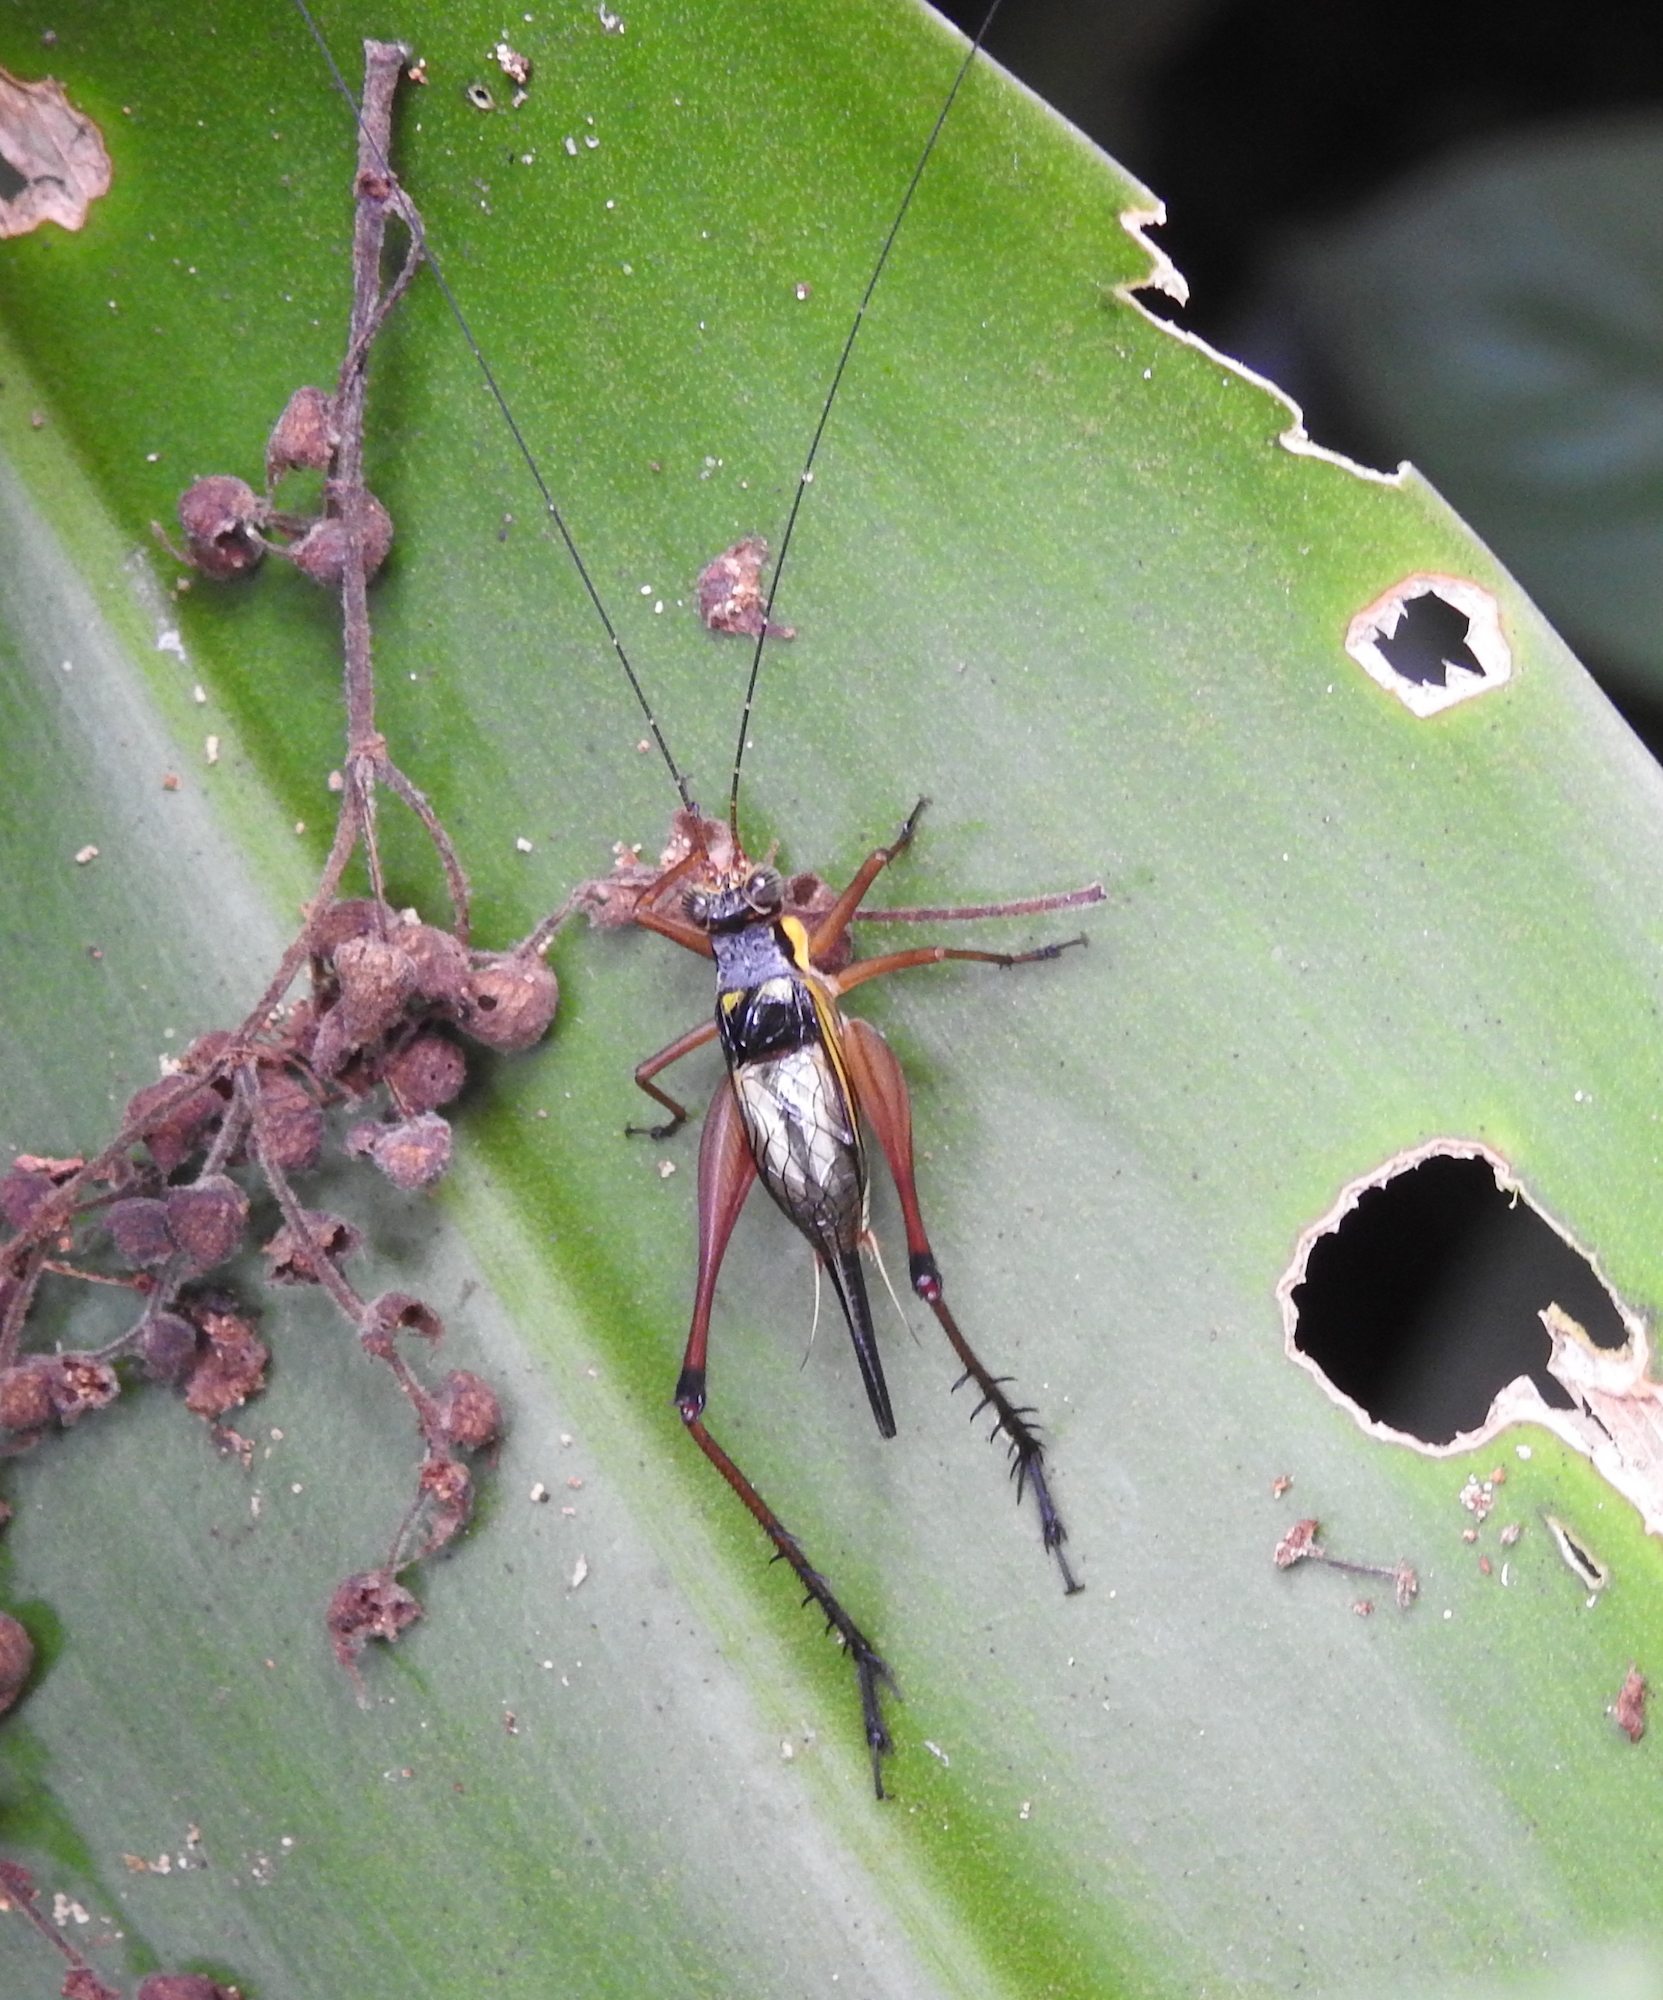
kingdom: Animalia
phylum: Arthropoda
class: Insecta
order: Orthoptera
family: Gryllidae
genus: Nisitrus
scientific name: Nisitrus malaya
